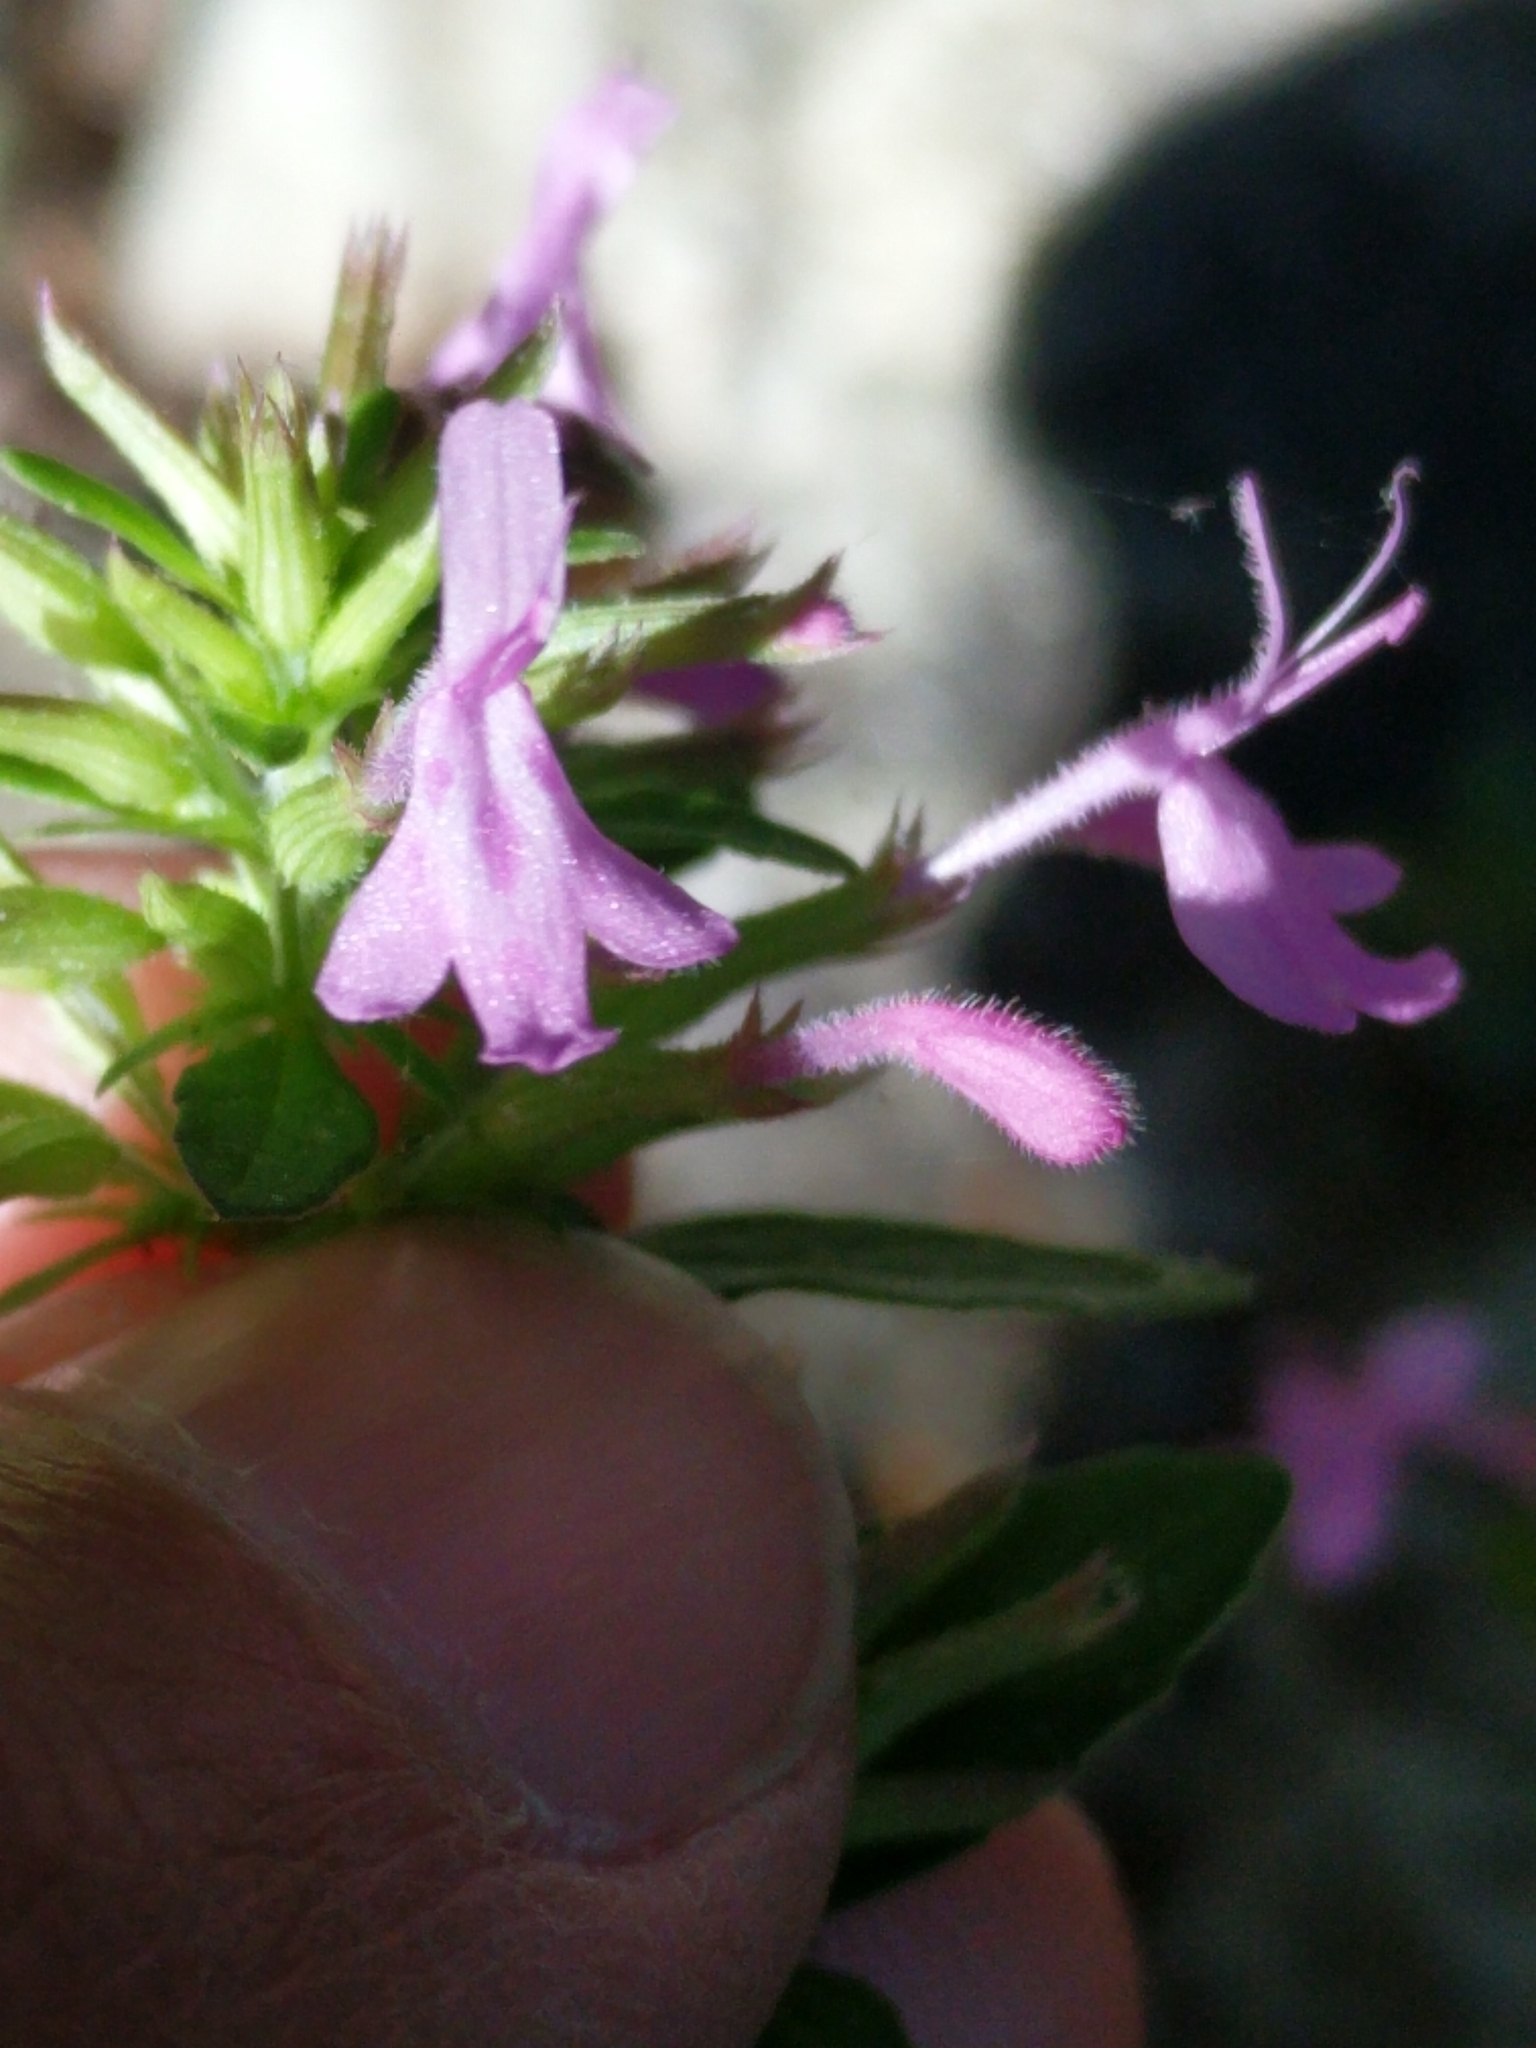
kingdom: Plantae
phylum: Tracheophyta
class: Magnoliopsida
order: Lamiales
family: Lamiaceae
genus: Hedeoma
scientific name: Hedeoma acinoides
